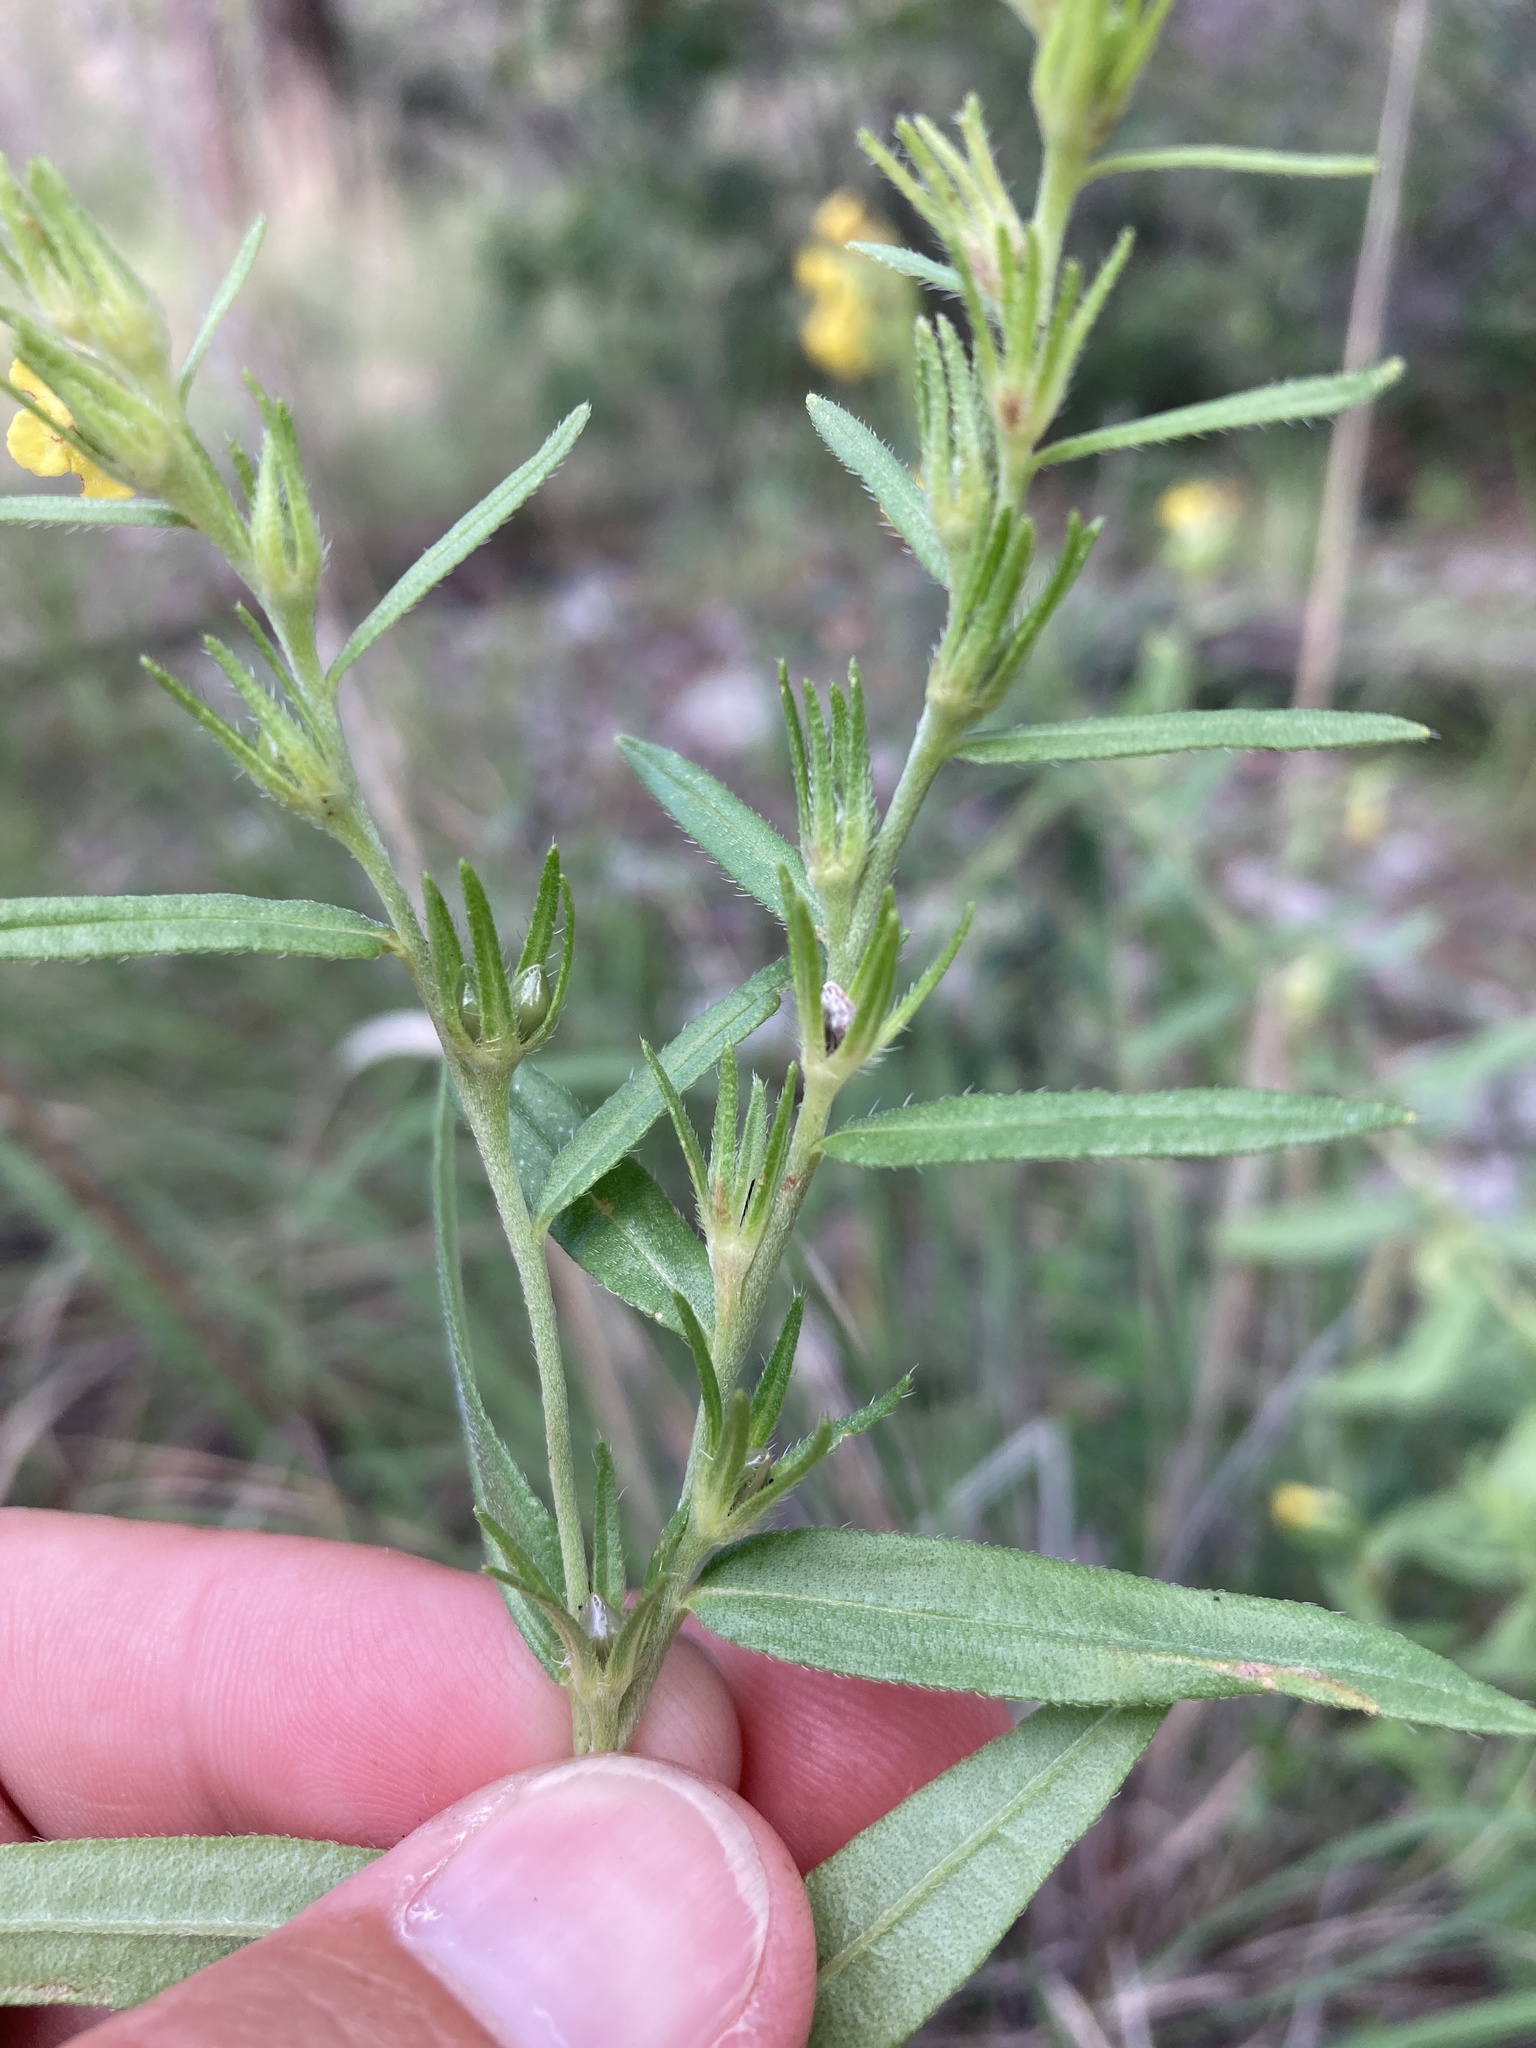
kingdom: Plantae
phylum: Tracheophyta
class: Magnoliopsida
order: Boraginales
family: Boraginaceae
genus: Lithospermum
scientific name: Lithospermum multiflorum
